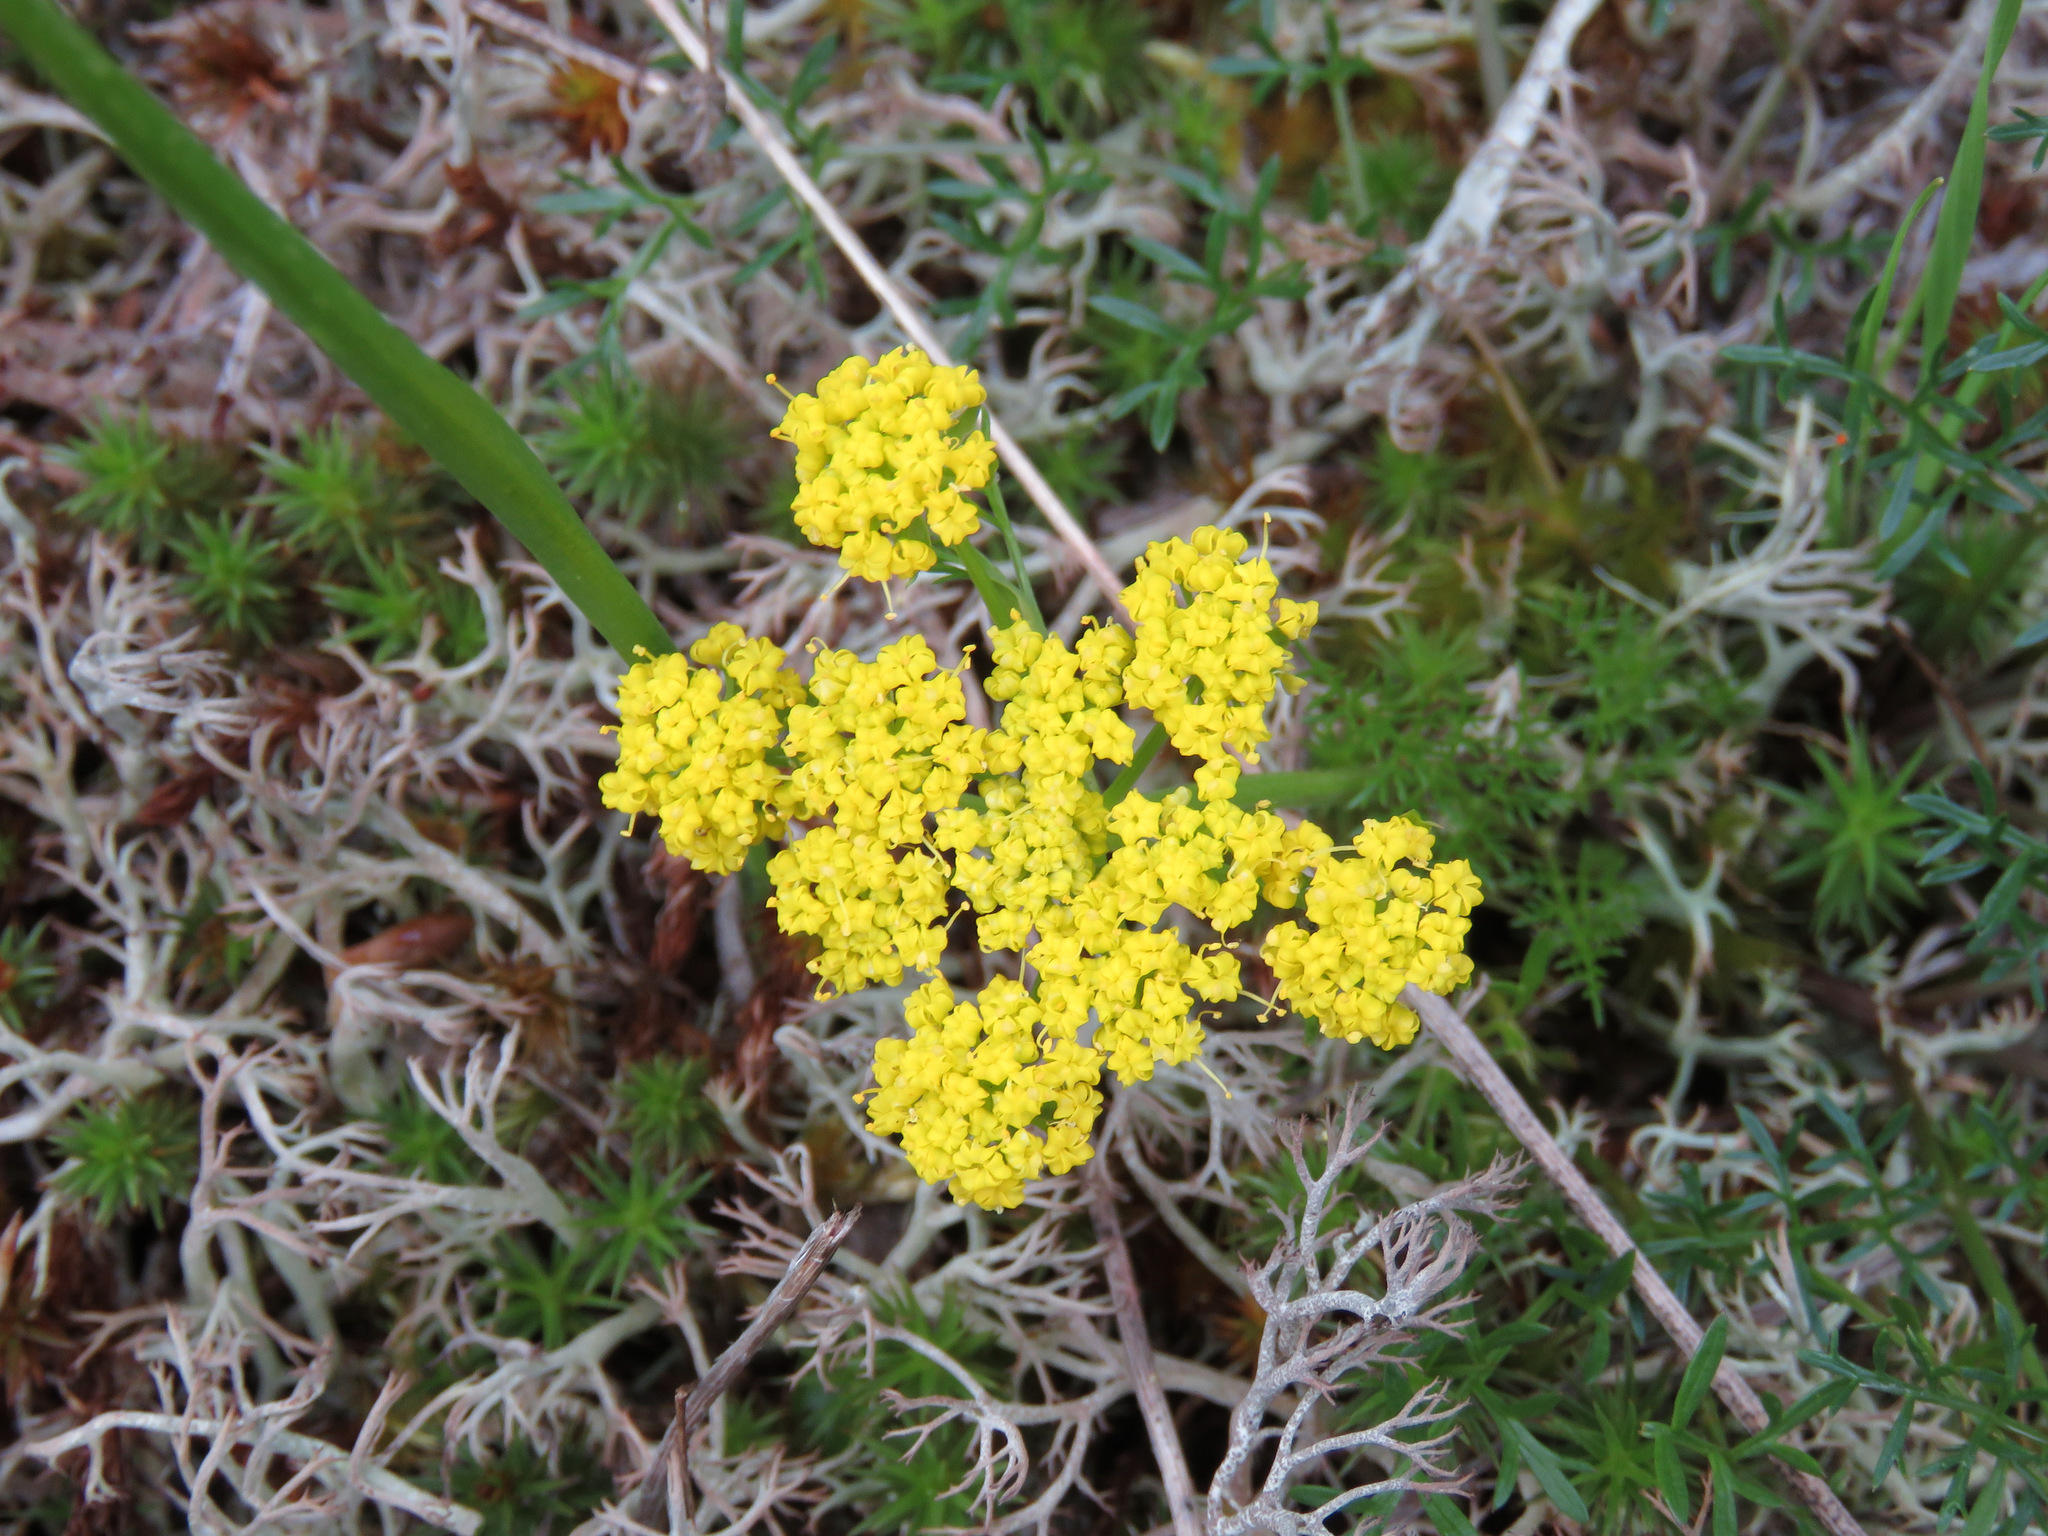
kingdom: Plantae
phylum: Tracheophyta
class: Magnoliopsida
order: Apiales
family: Apiaceae
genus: Lomatium
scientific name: Lomatium utriculatum
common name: Fine-leaf desert-parsley
